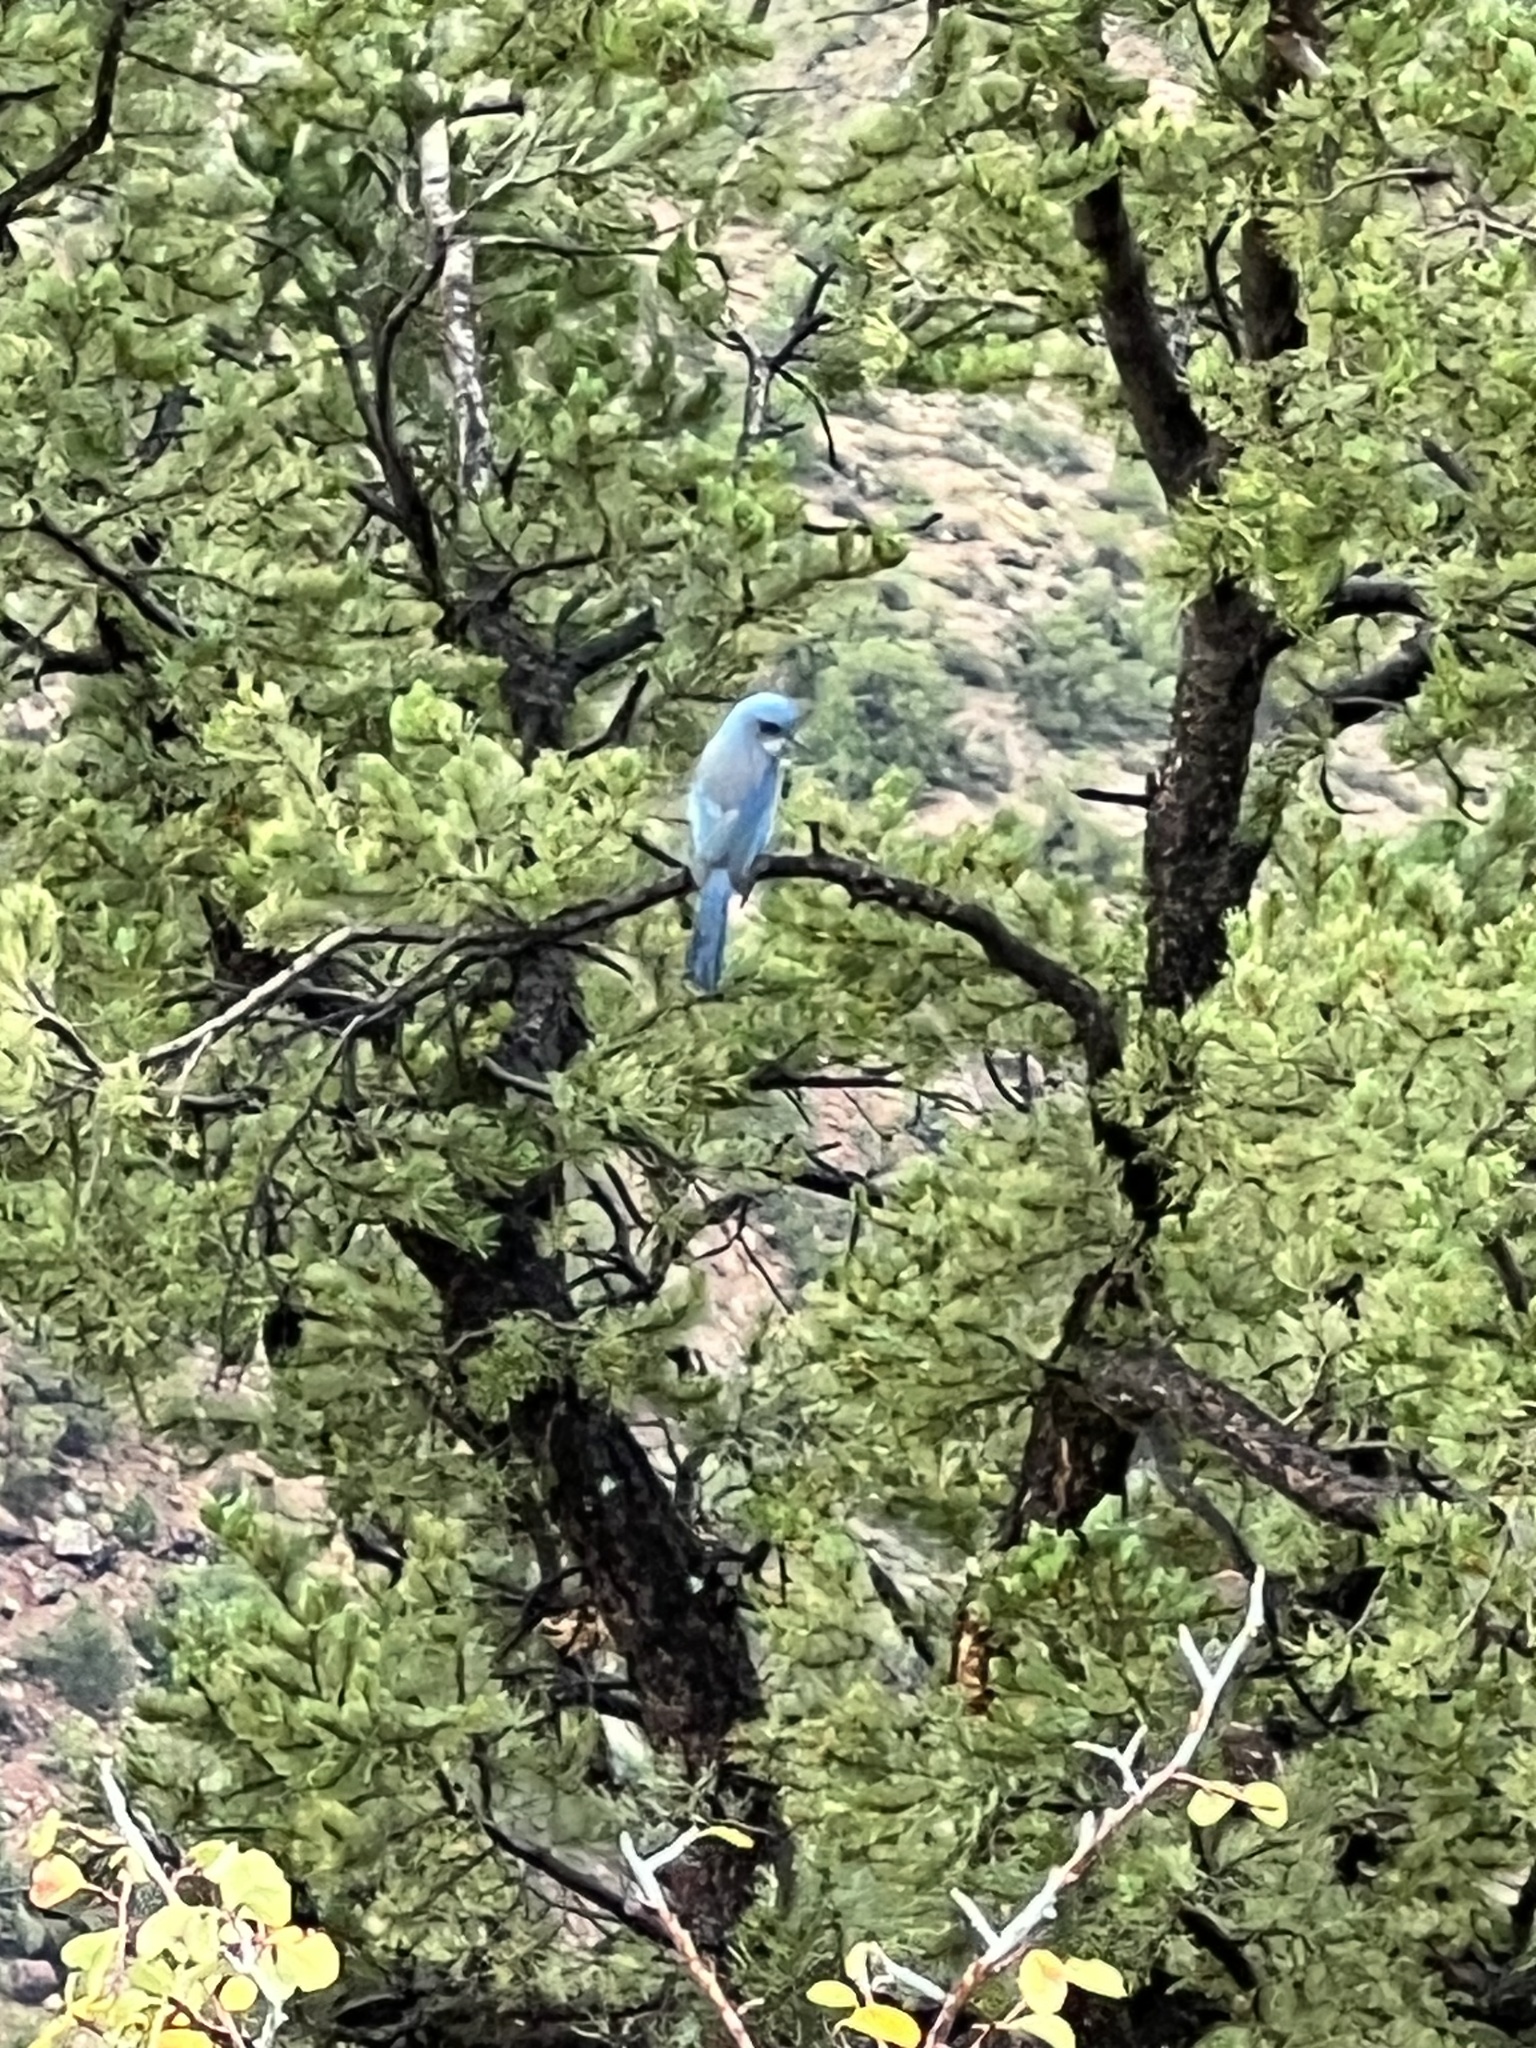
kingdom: Animalia
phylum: Chordata
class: Aves
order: Passeriformes
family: Corvidae
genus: Aphelocoma
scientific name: Aphelocoma woodhouseii
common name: Woodhouse's scrub-jay
